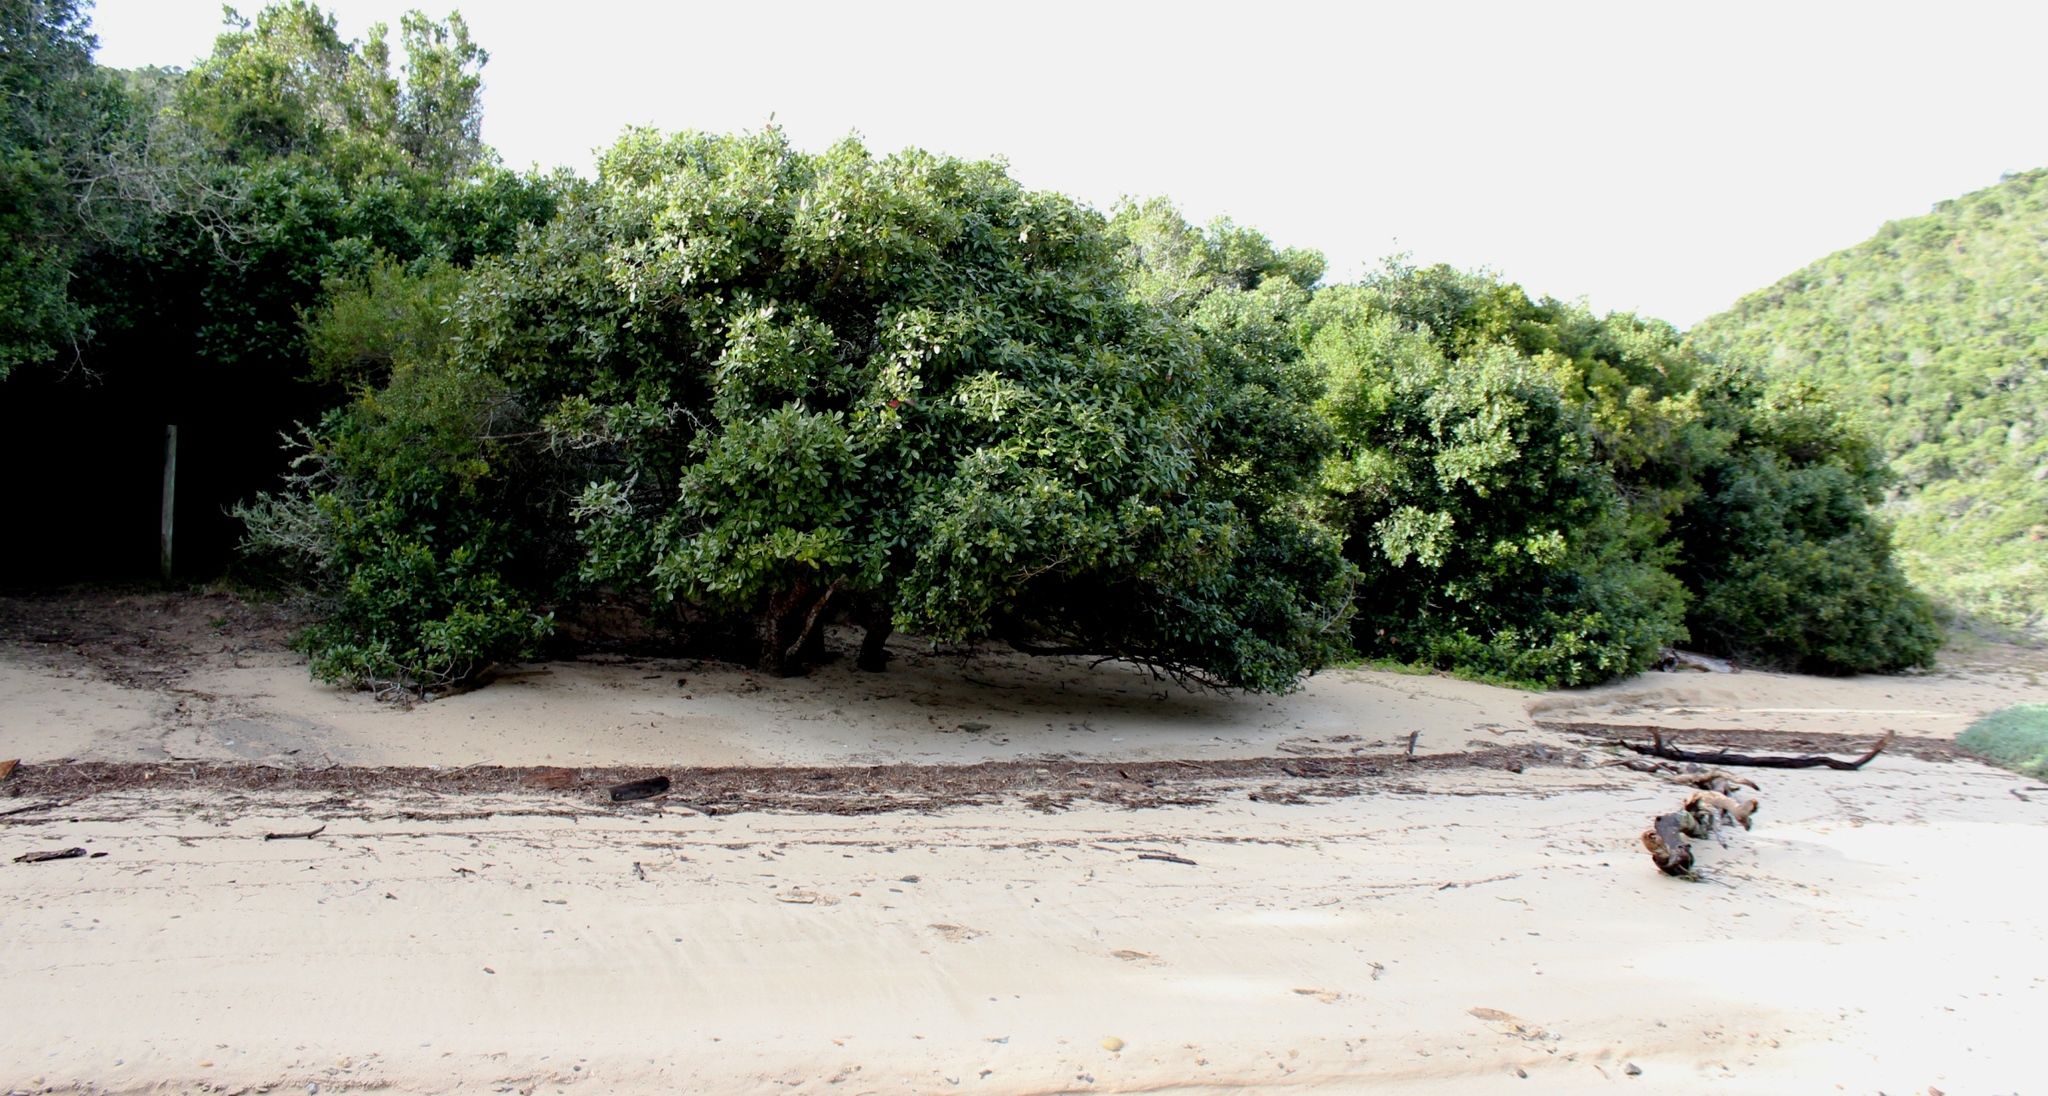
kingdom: Plantae
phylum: Tracheophyta
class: Magnoliopsida
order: Ericales
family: Sapotaceae
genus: Sideroxylon
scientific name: Sideroxylon inerme
